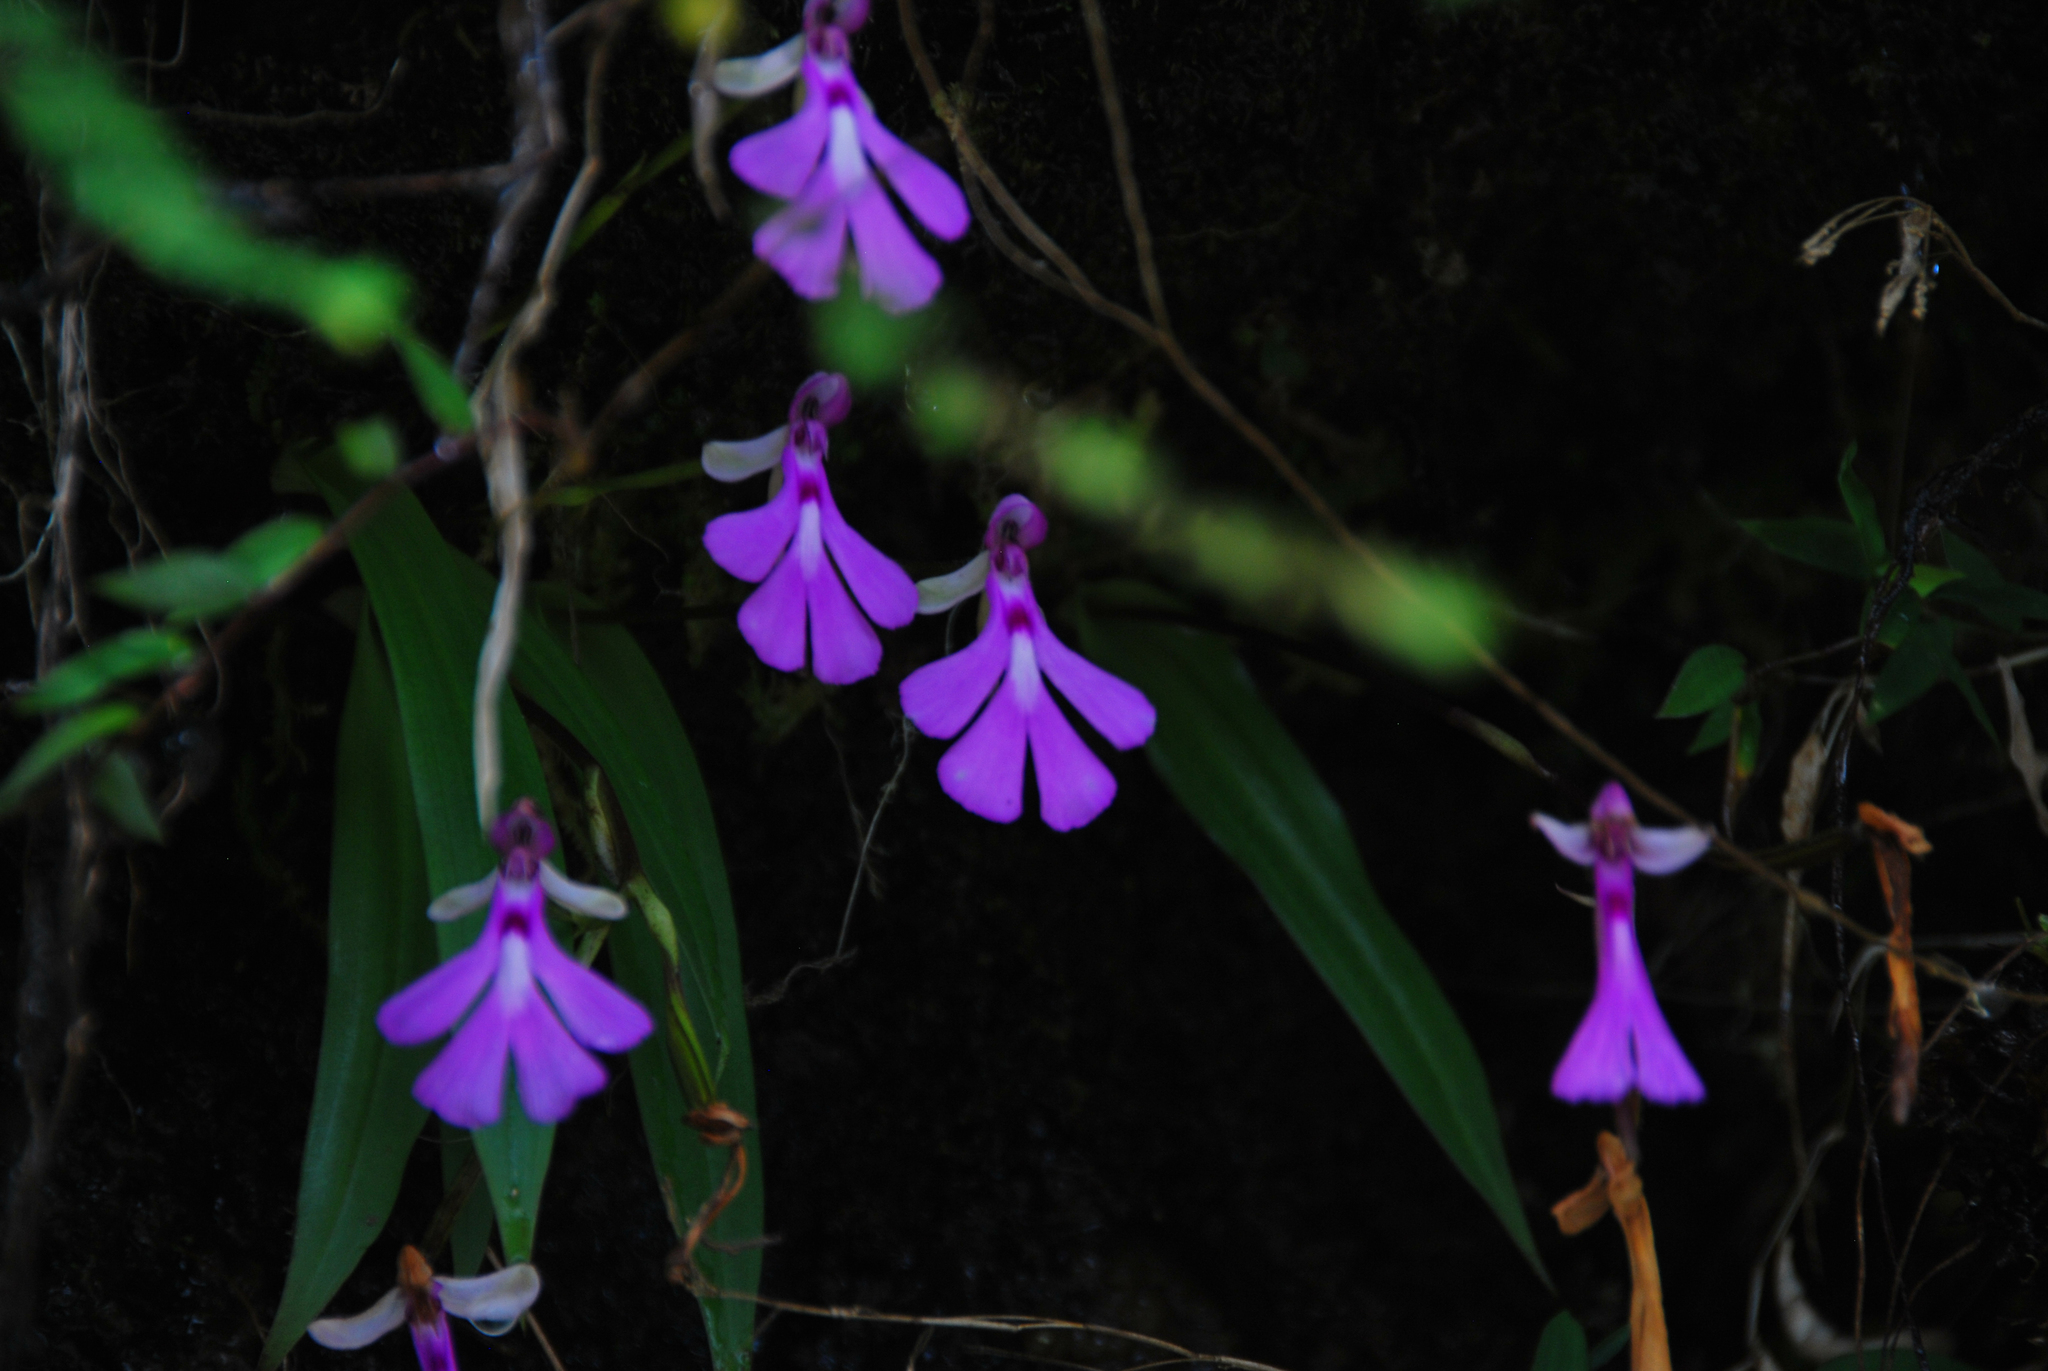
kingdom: Plantae
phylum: Tracheophyta
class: Liliopsida
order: Asparagales
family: Orchidaceae
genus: Cynorkis
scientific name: Cynorkis lowiana
